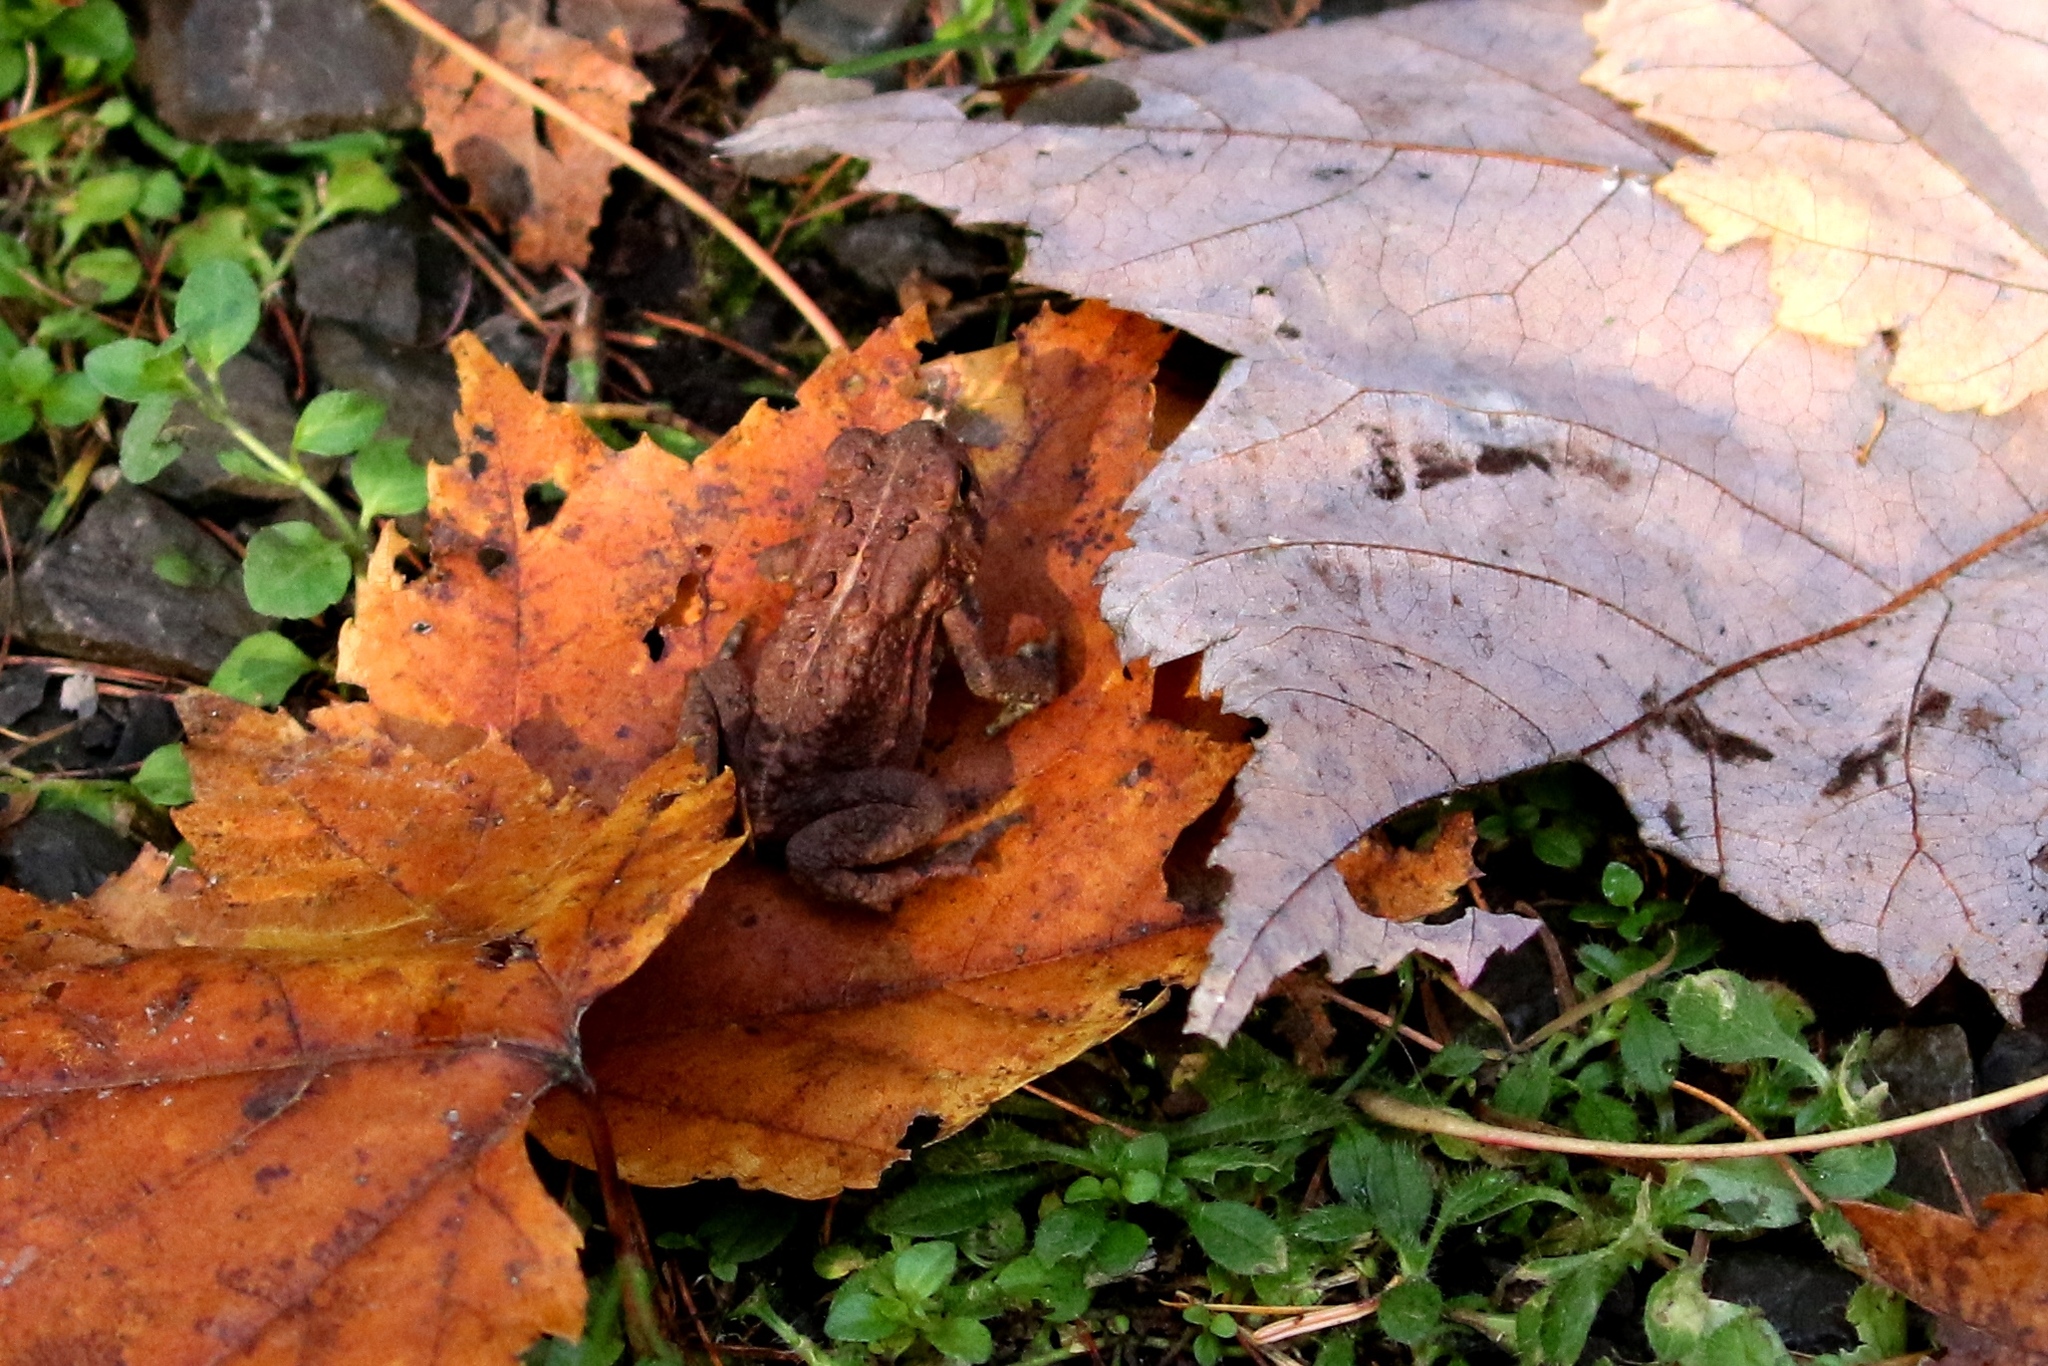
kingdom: Animalia
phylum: Chordata
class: Amphibia
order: Anura
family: Bufonidae
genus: Anaxyrus
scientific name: Anaxyrus americanus
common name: American toad
